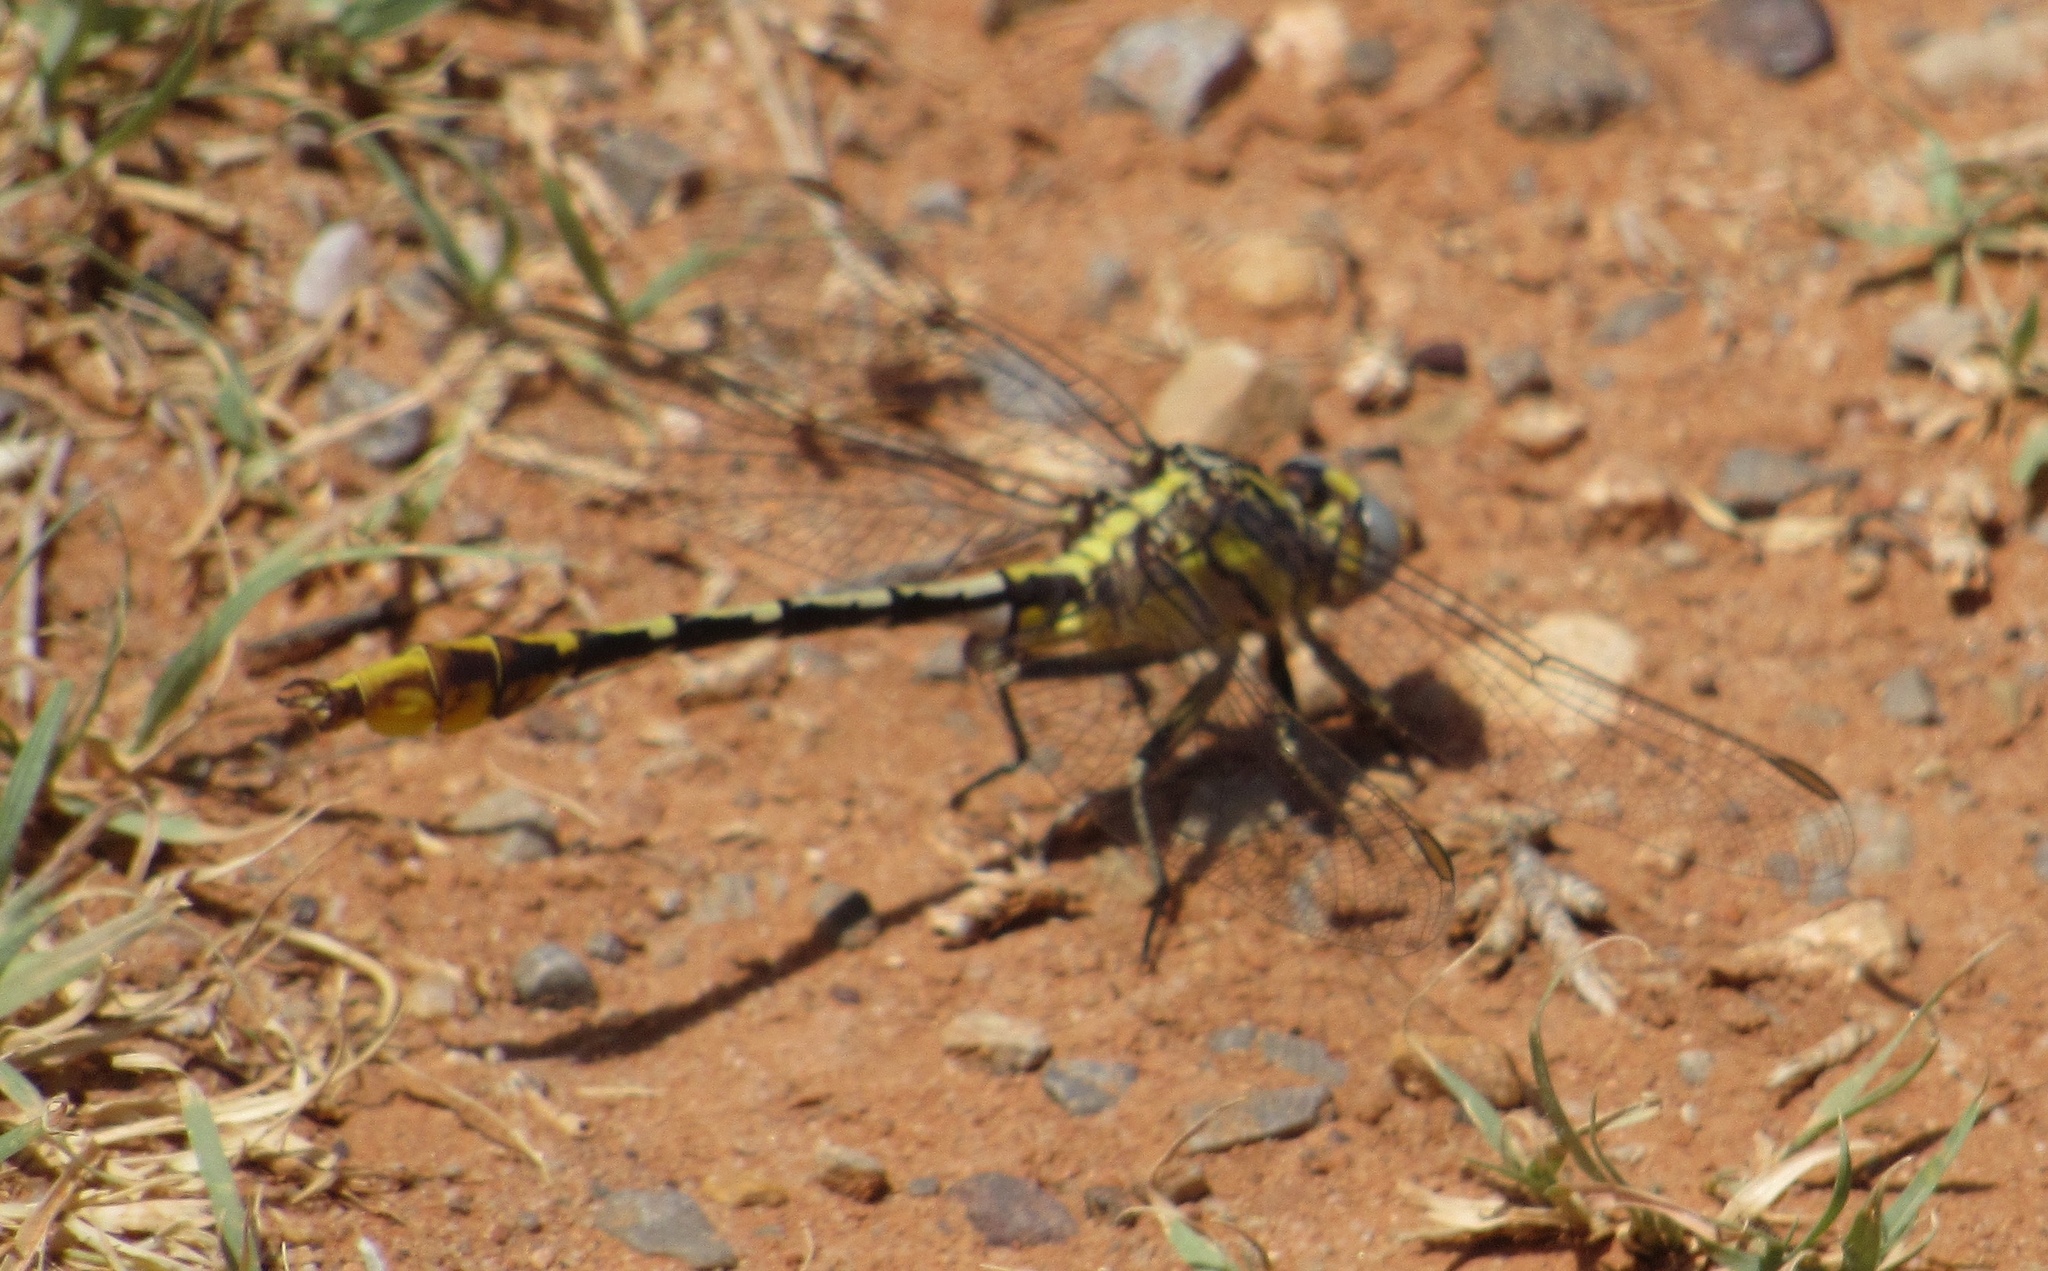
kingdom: Animalia
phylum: Arthropoda
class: Insecta
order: Odonata
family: Gomphidae
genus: Phanogomphus
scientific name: Phanogomphus militaris
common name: Sulphur-tipped clubtail
